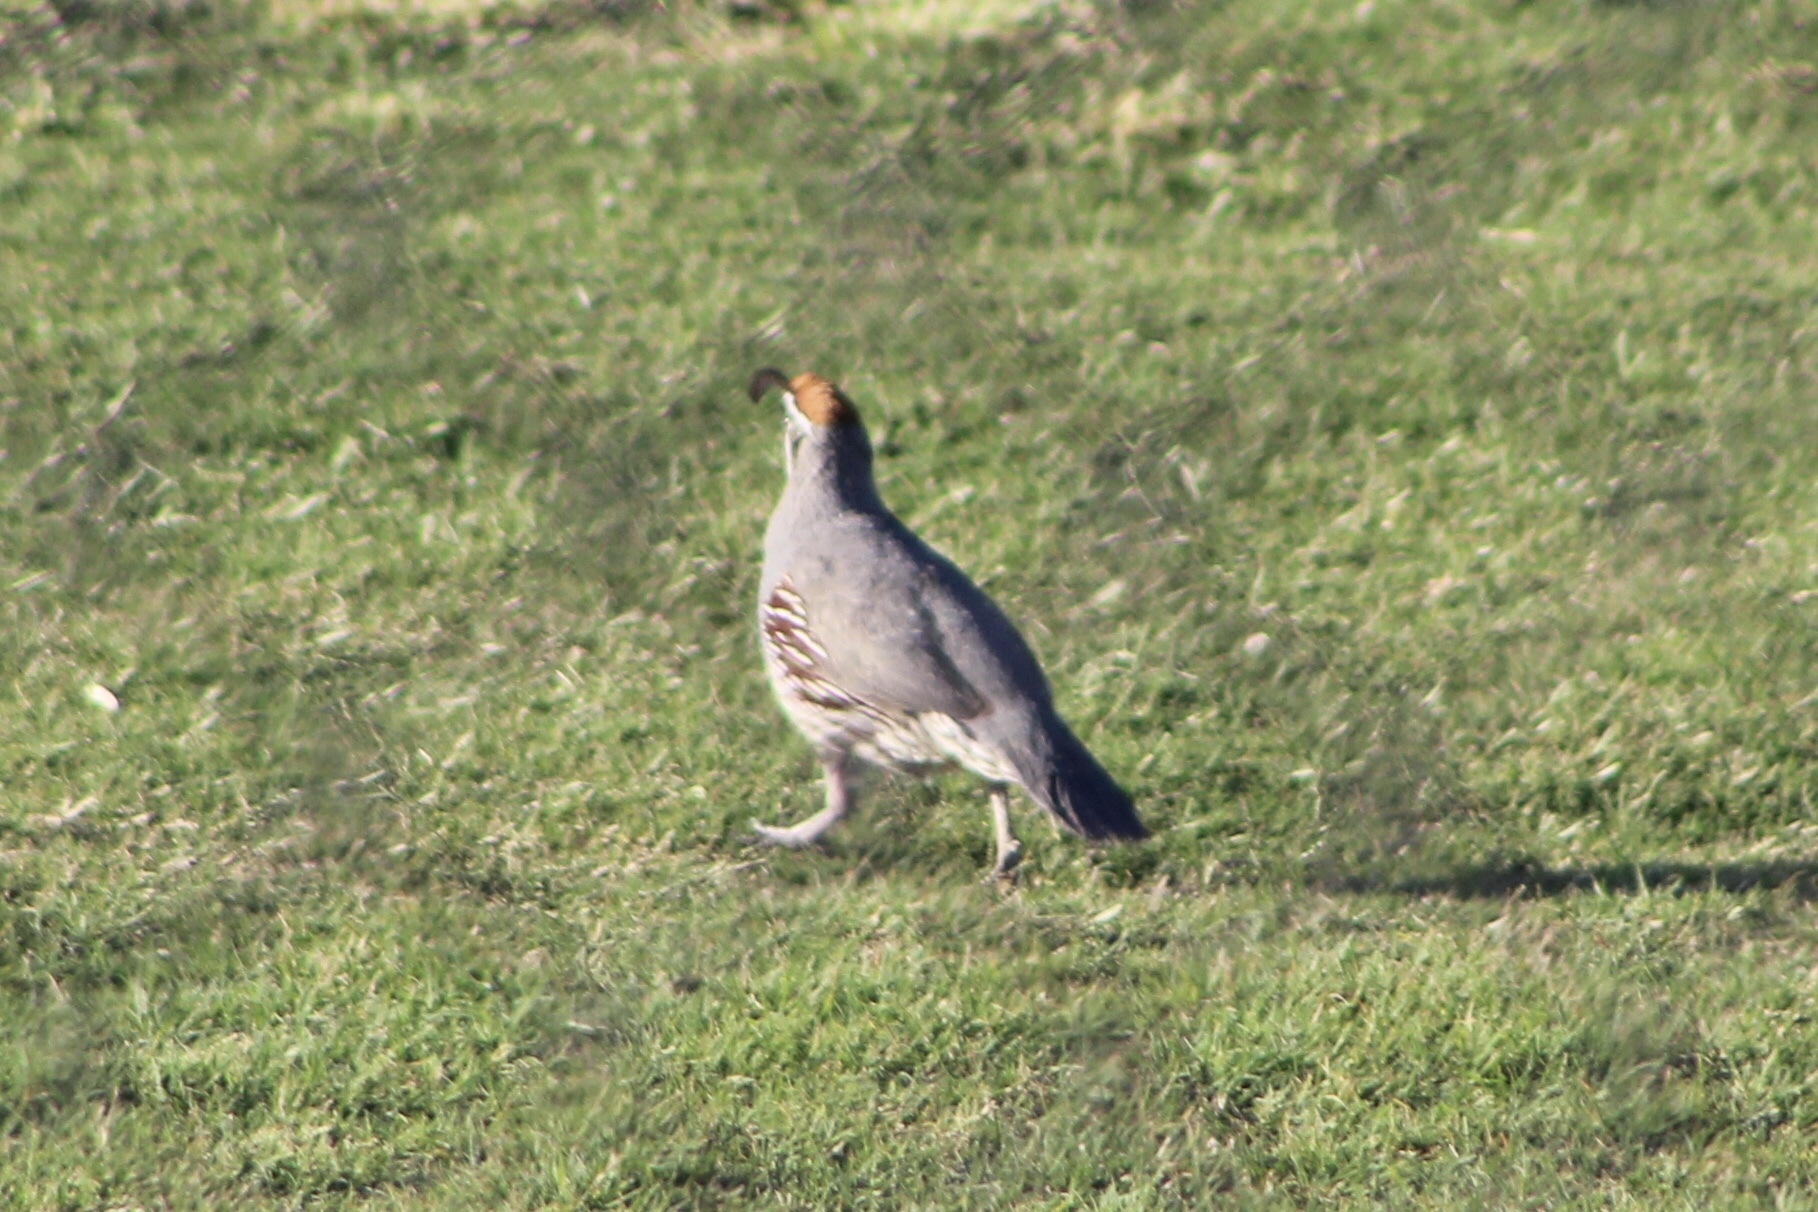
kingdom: Animalia
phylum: Chordata
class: Aves
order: Galliformes
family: Odontophoridae
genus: Callipepla
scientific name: Callipepla gambelii
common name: Gambel's quail
